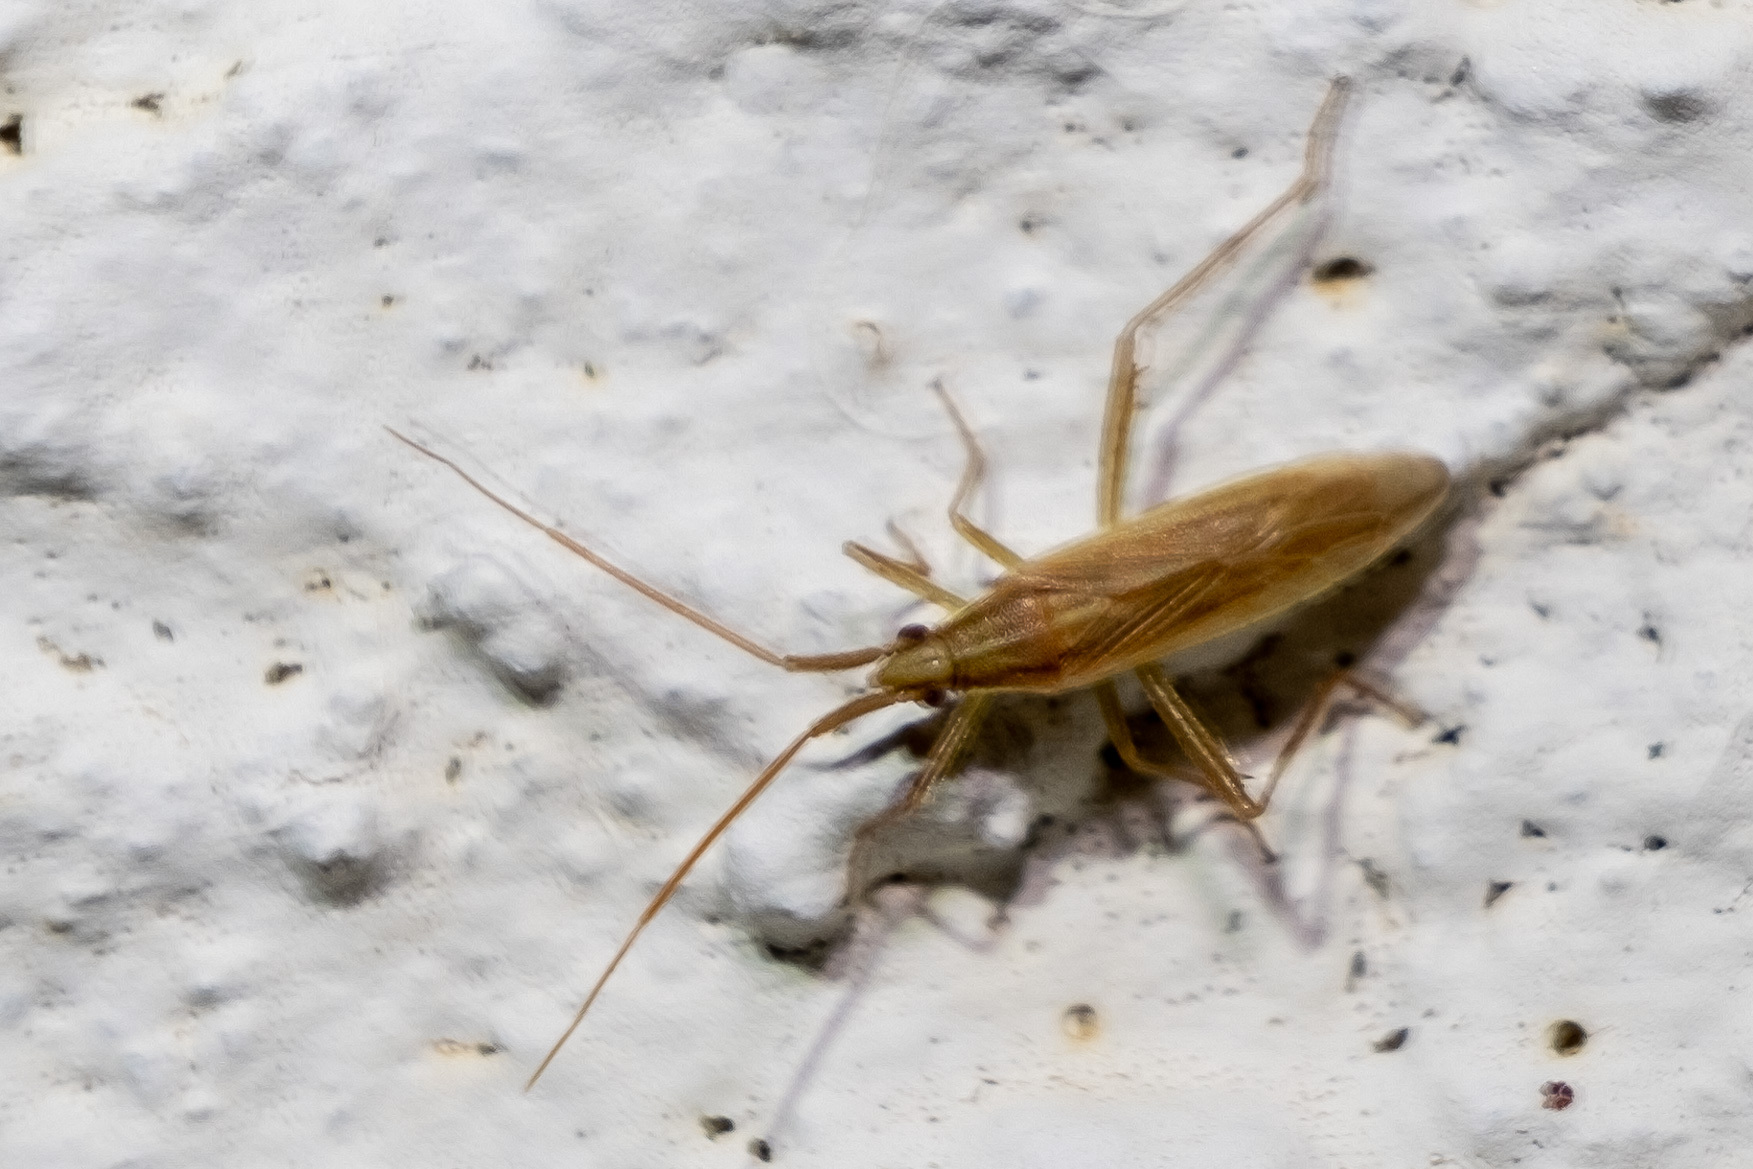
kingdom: Animalia
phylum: Arthropoda
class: Insecta
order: Hemiptera
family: Miridae
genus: Stenodema
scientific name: Stenodema trispinosa
